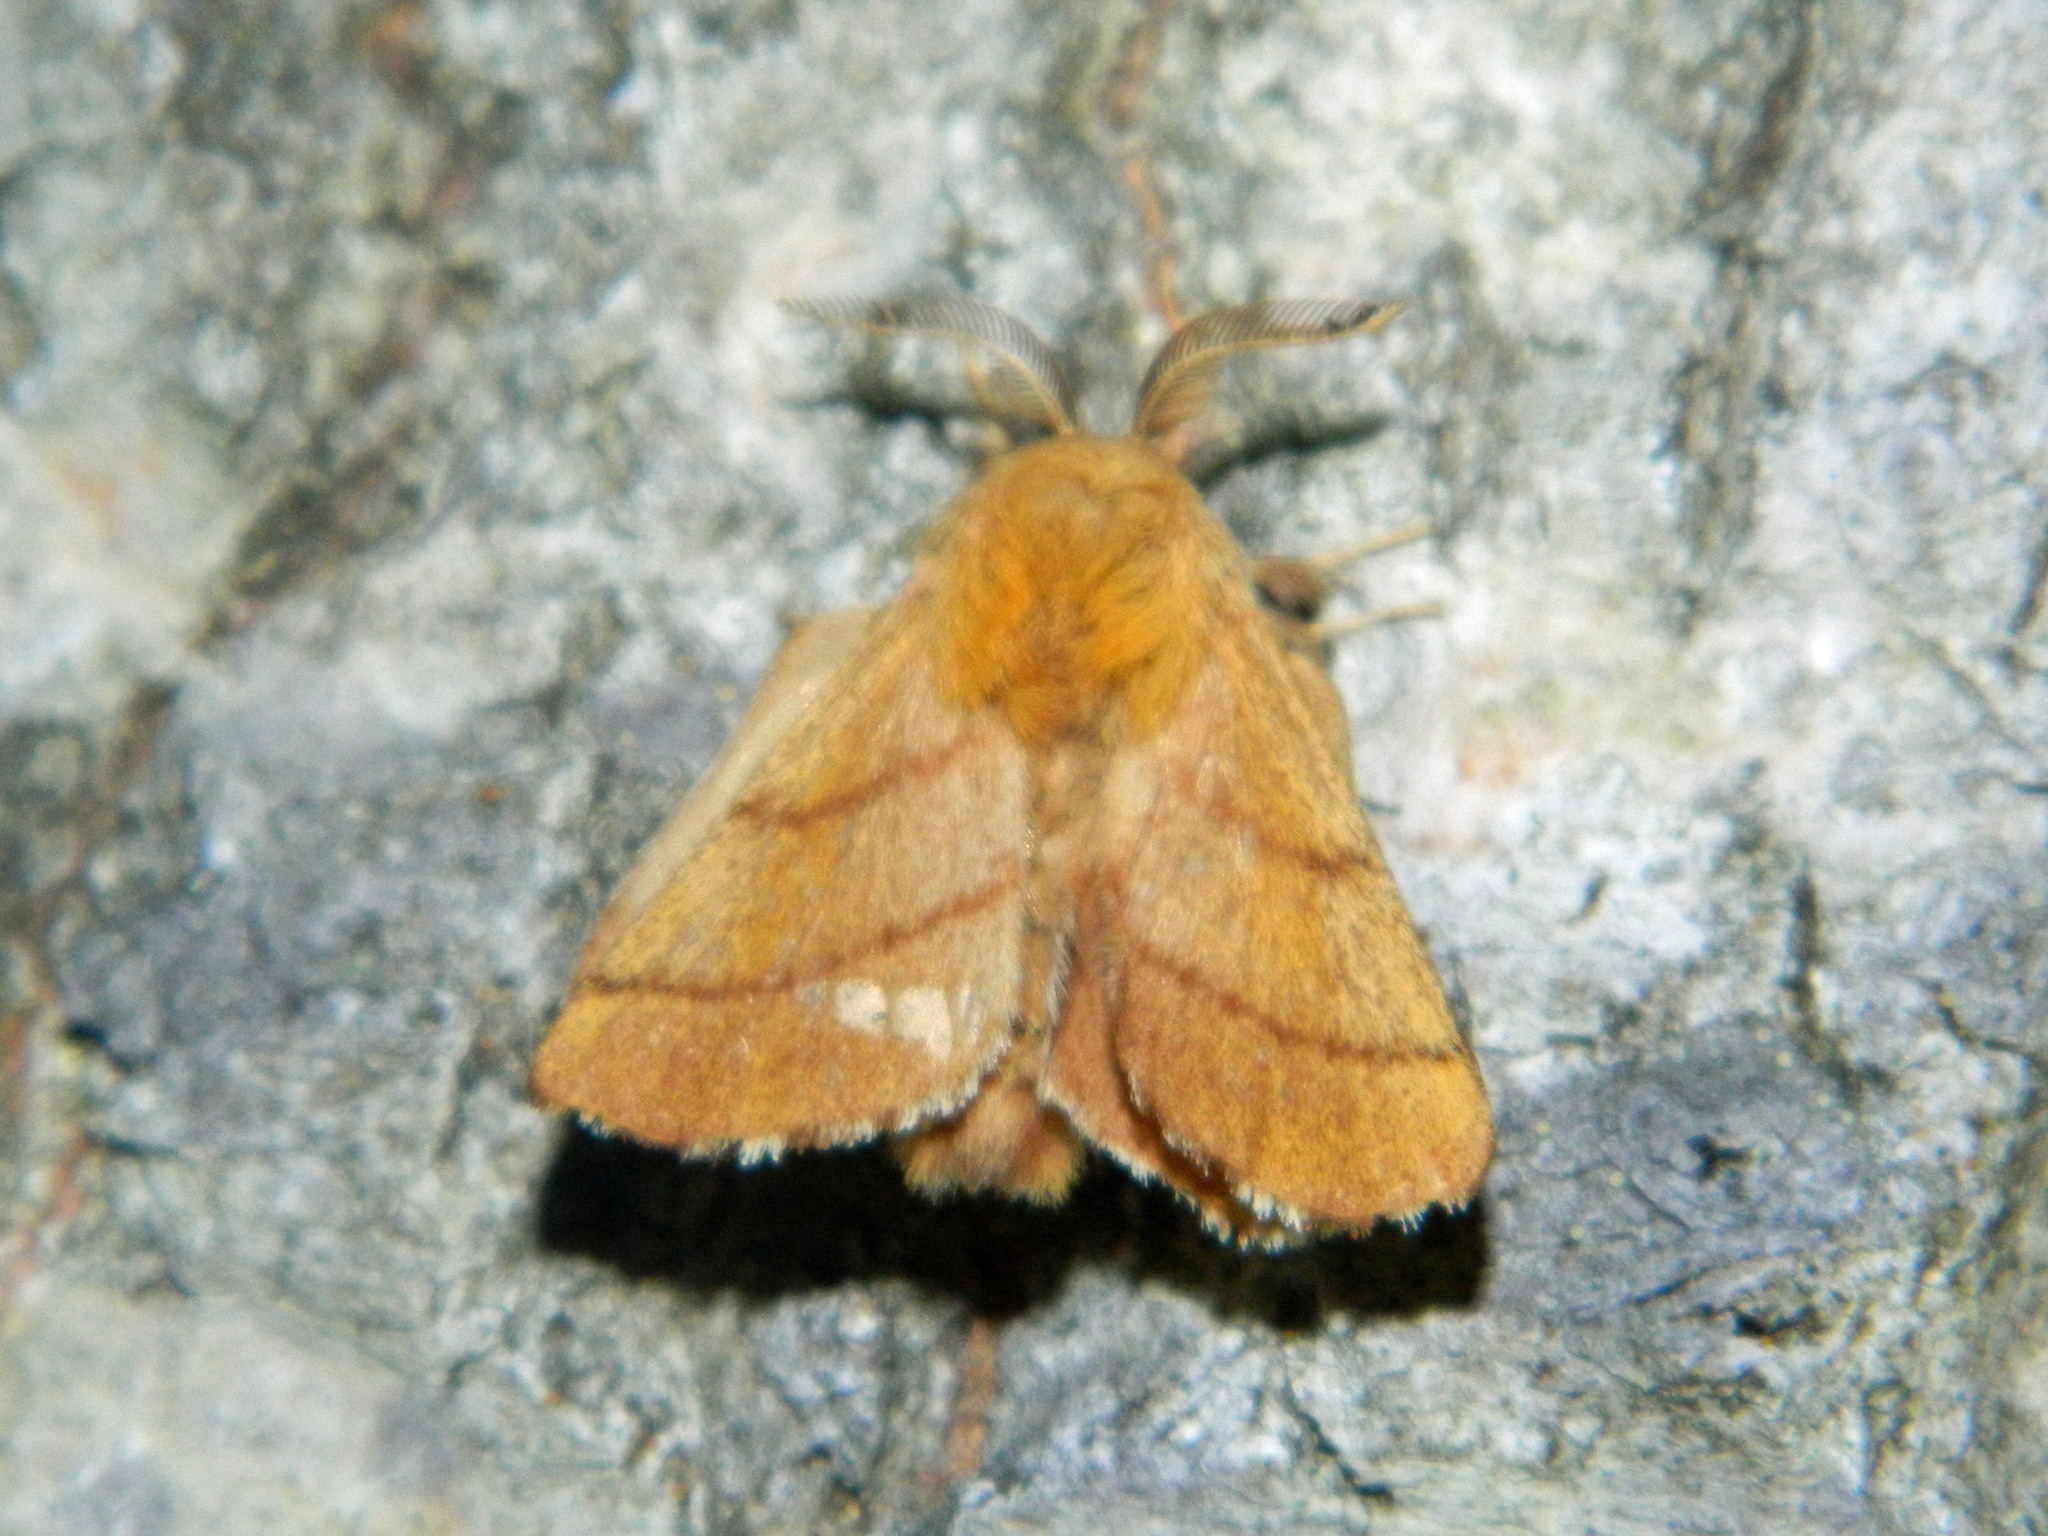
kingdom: Animalia
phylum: Arthropoda
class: Insecta
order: Lepidoptera
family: Lasiocampidae
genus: Malacosoma
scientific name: Malacosoma disstria
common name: Forest tent caterpillar
